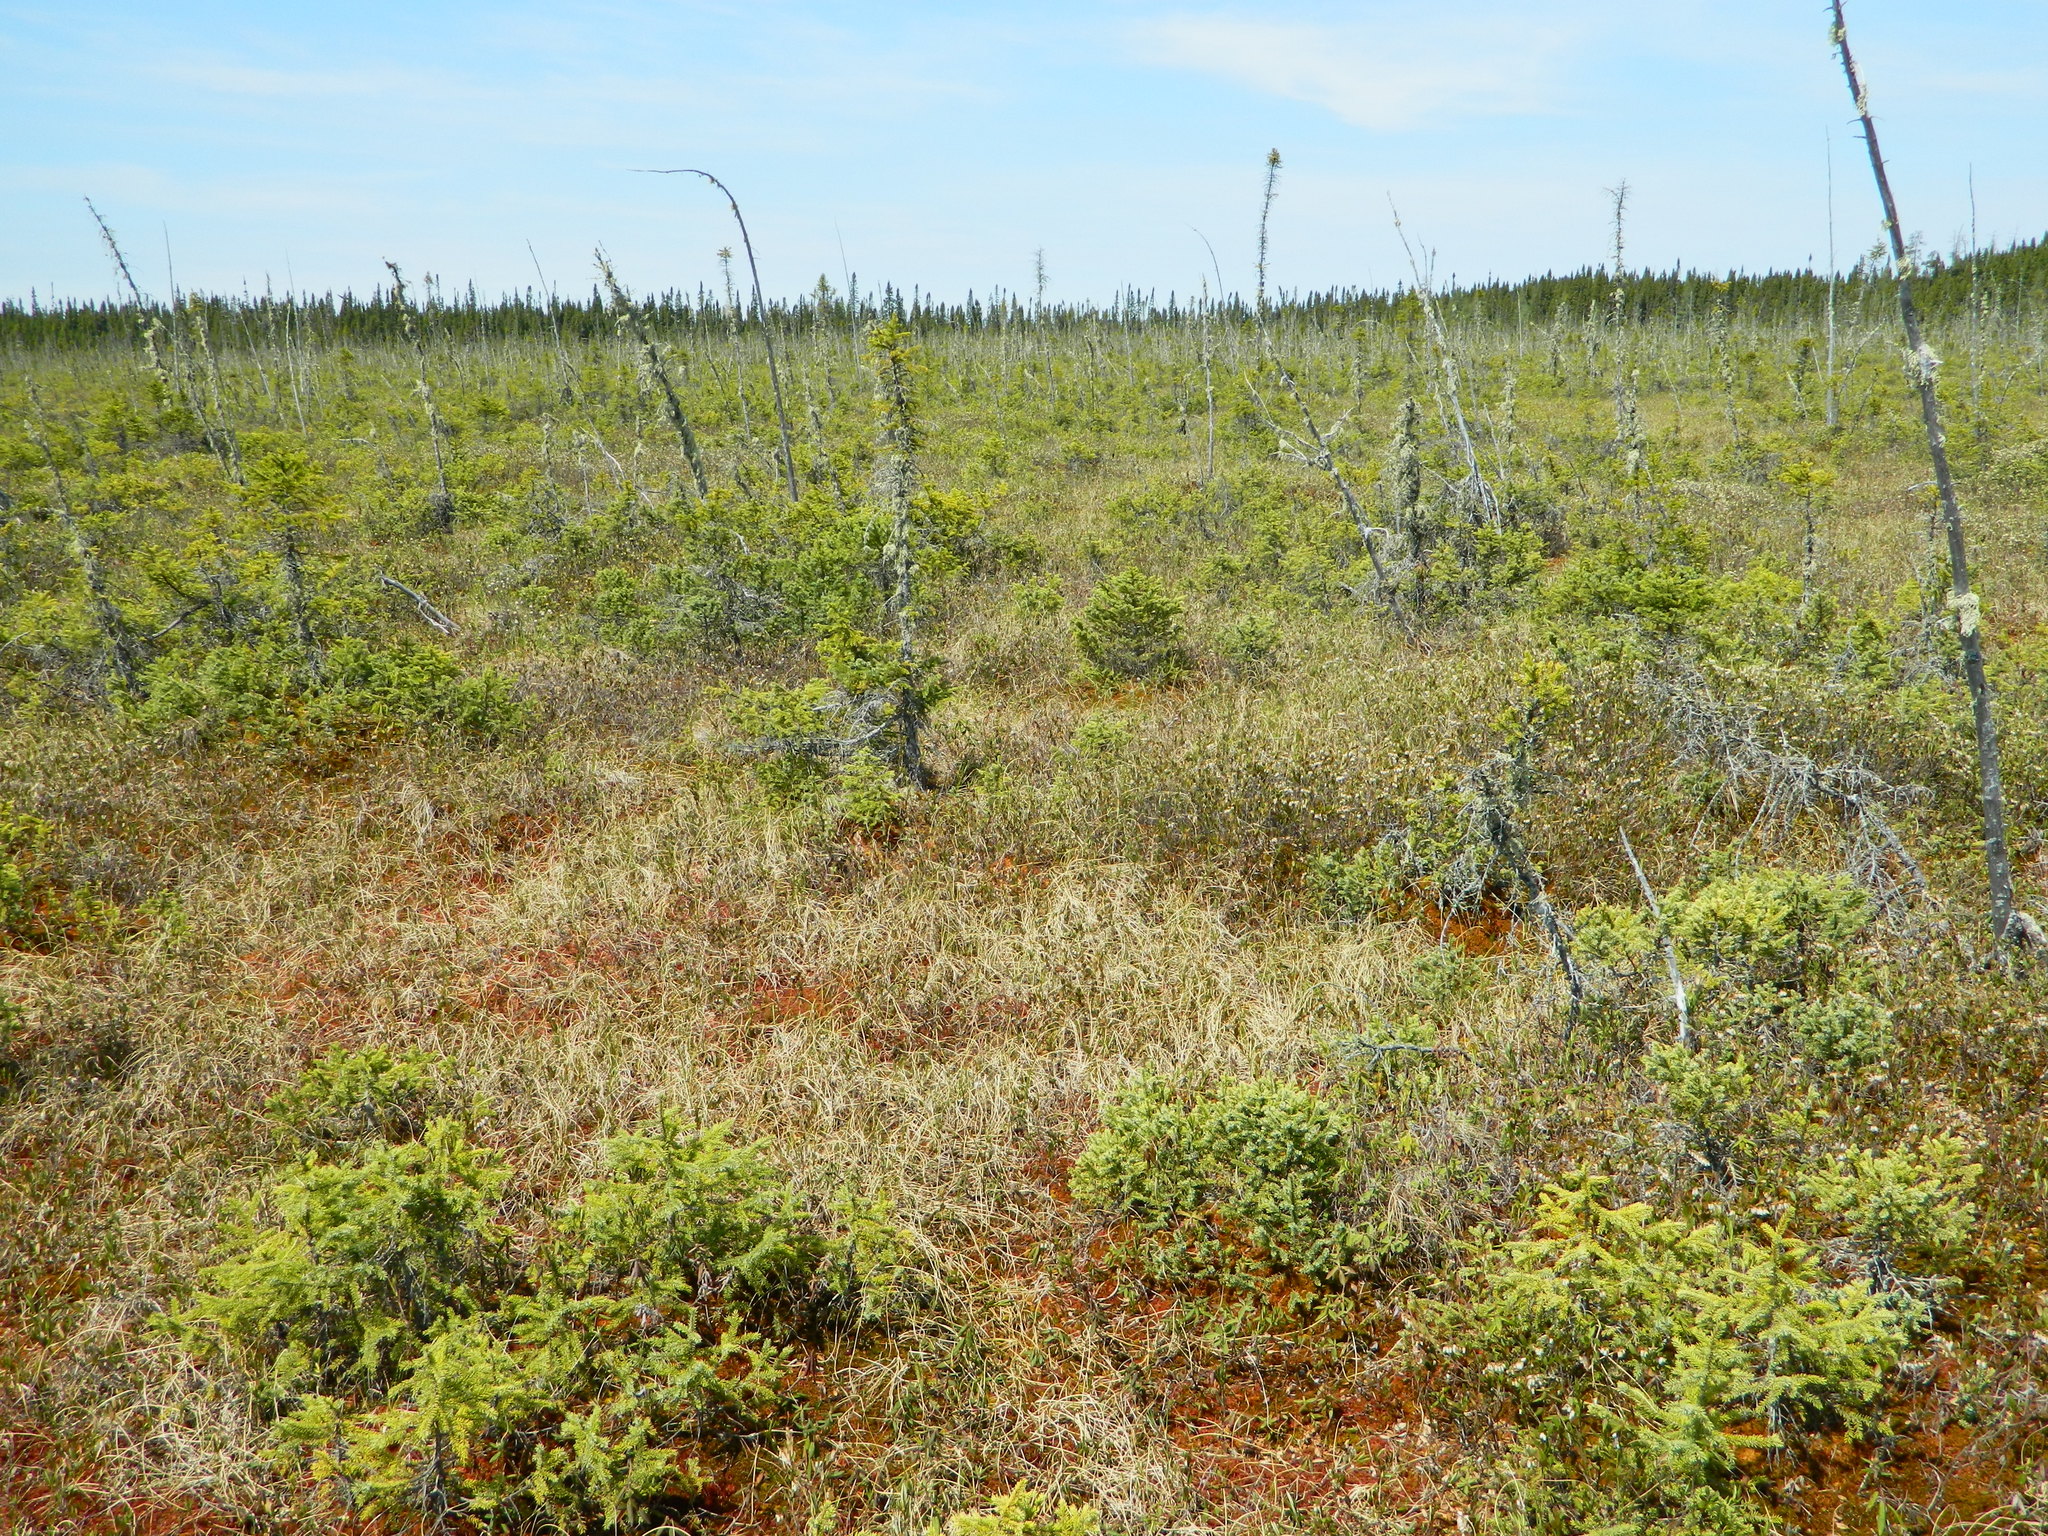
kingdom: Plantae
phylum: Tracheophyta
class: Pinopsida
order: Pinales
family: Pinaceae
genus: Picea
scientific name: Picea mariana
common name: Black spruce
